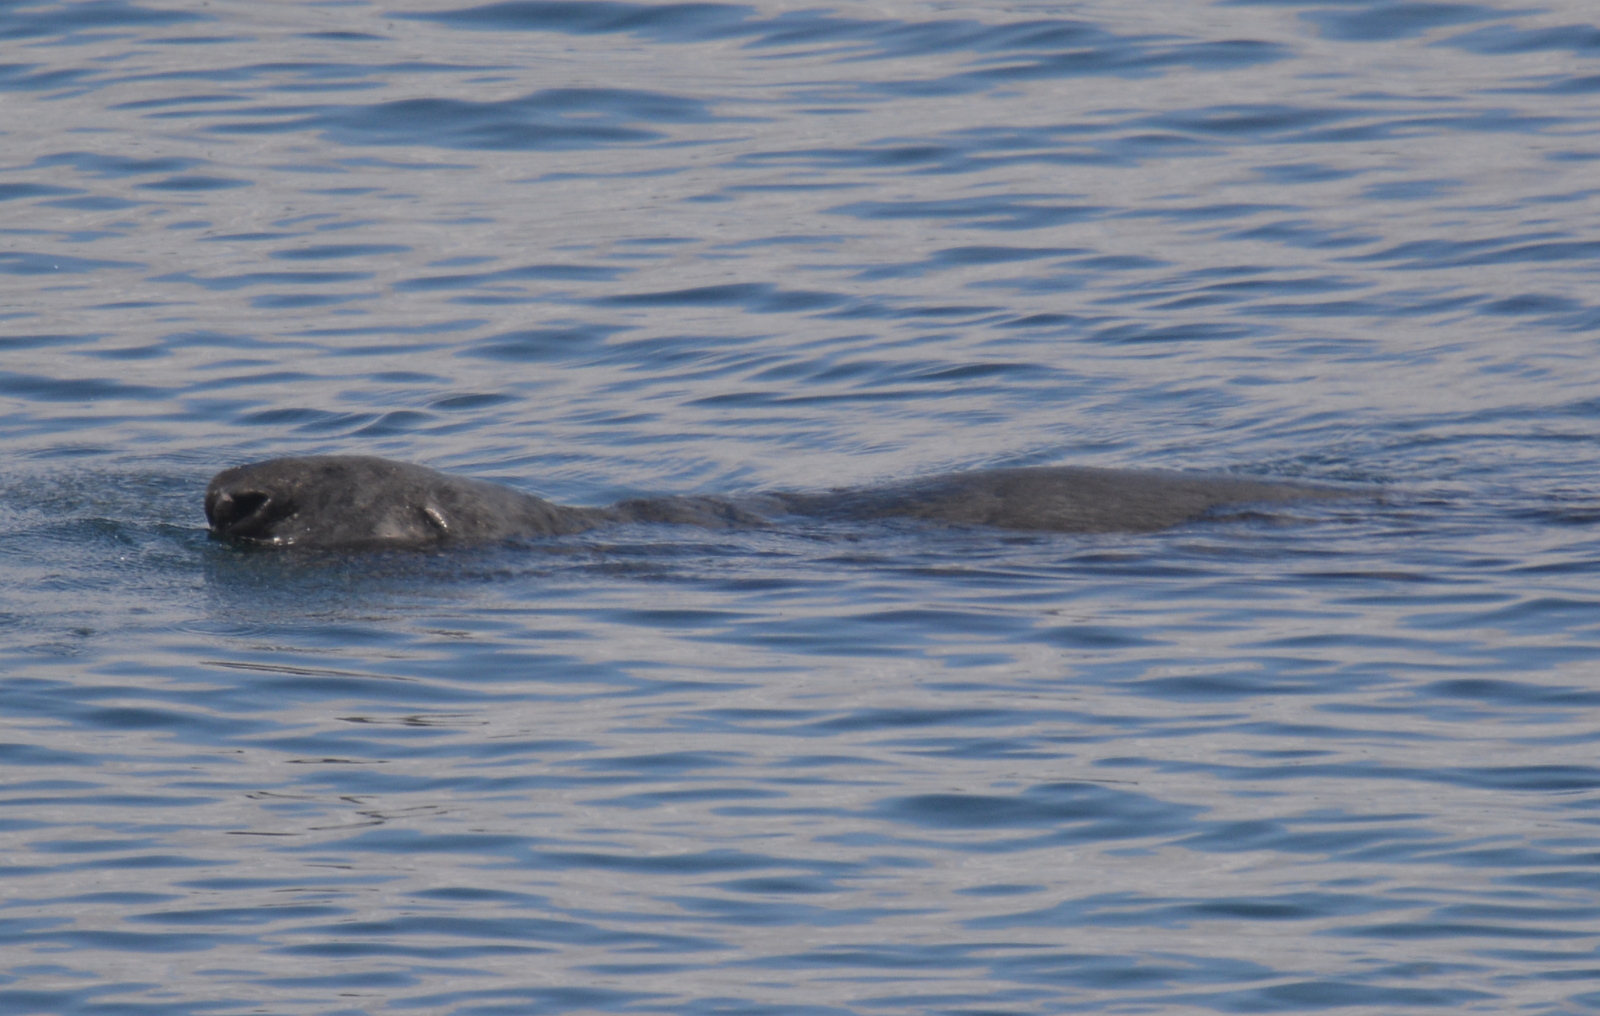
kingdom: Animalia
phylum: Chordata
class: Mammalia
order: Carnivora
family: Phocidae
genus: Halichoerus
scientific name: Halichoerus grypus
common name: Grey seal
